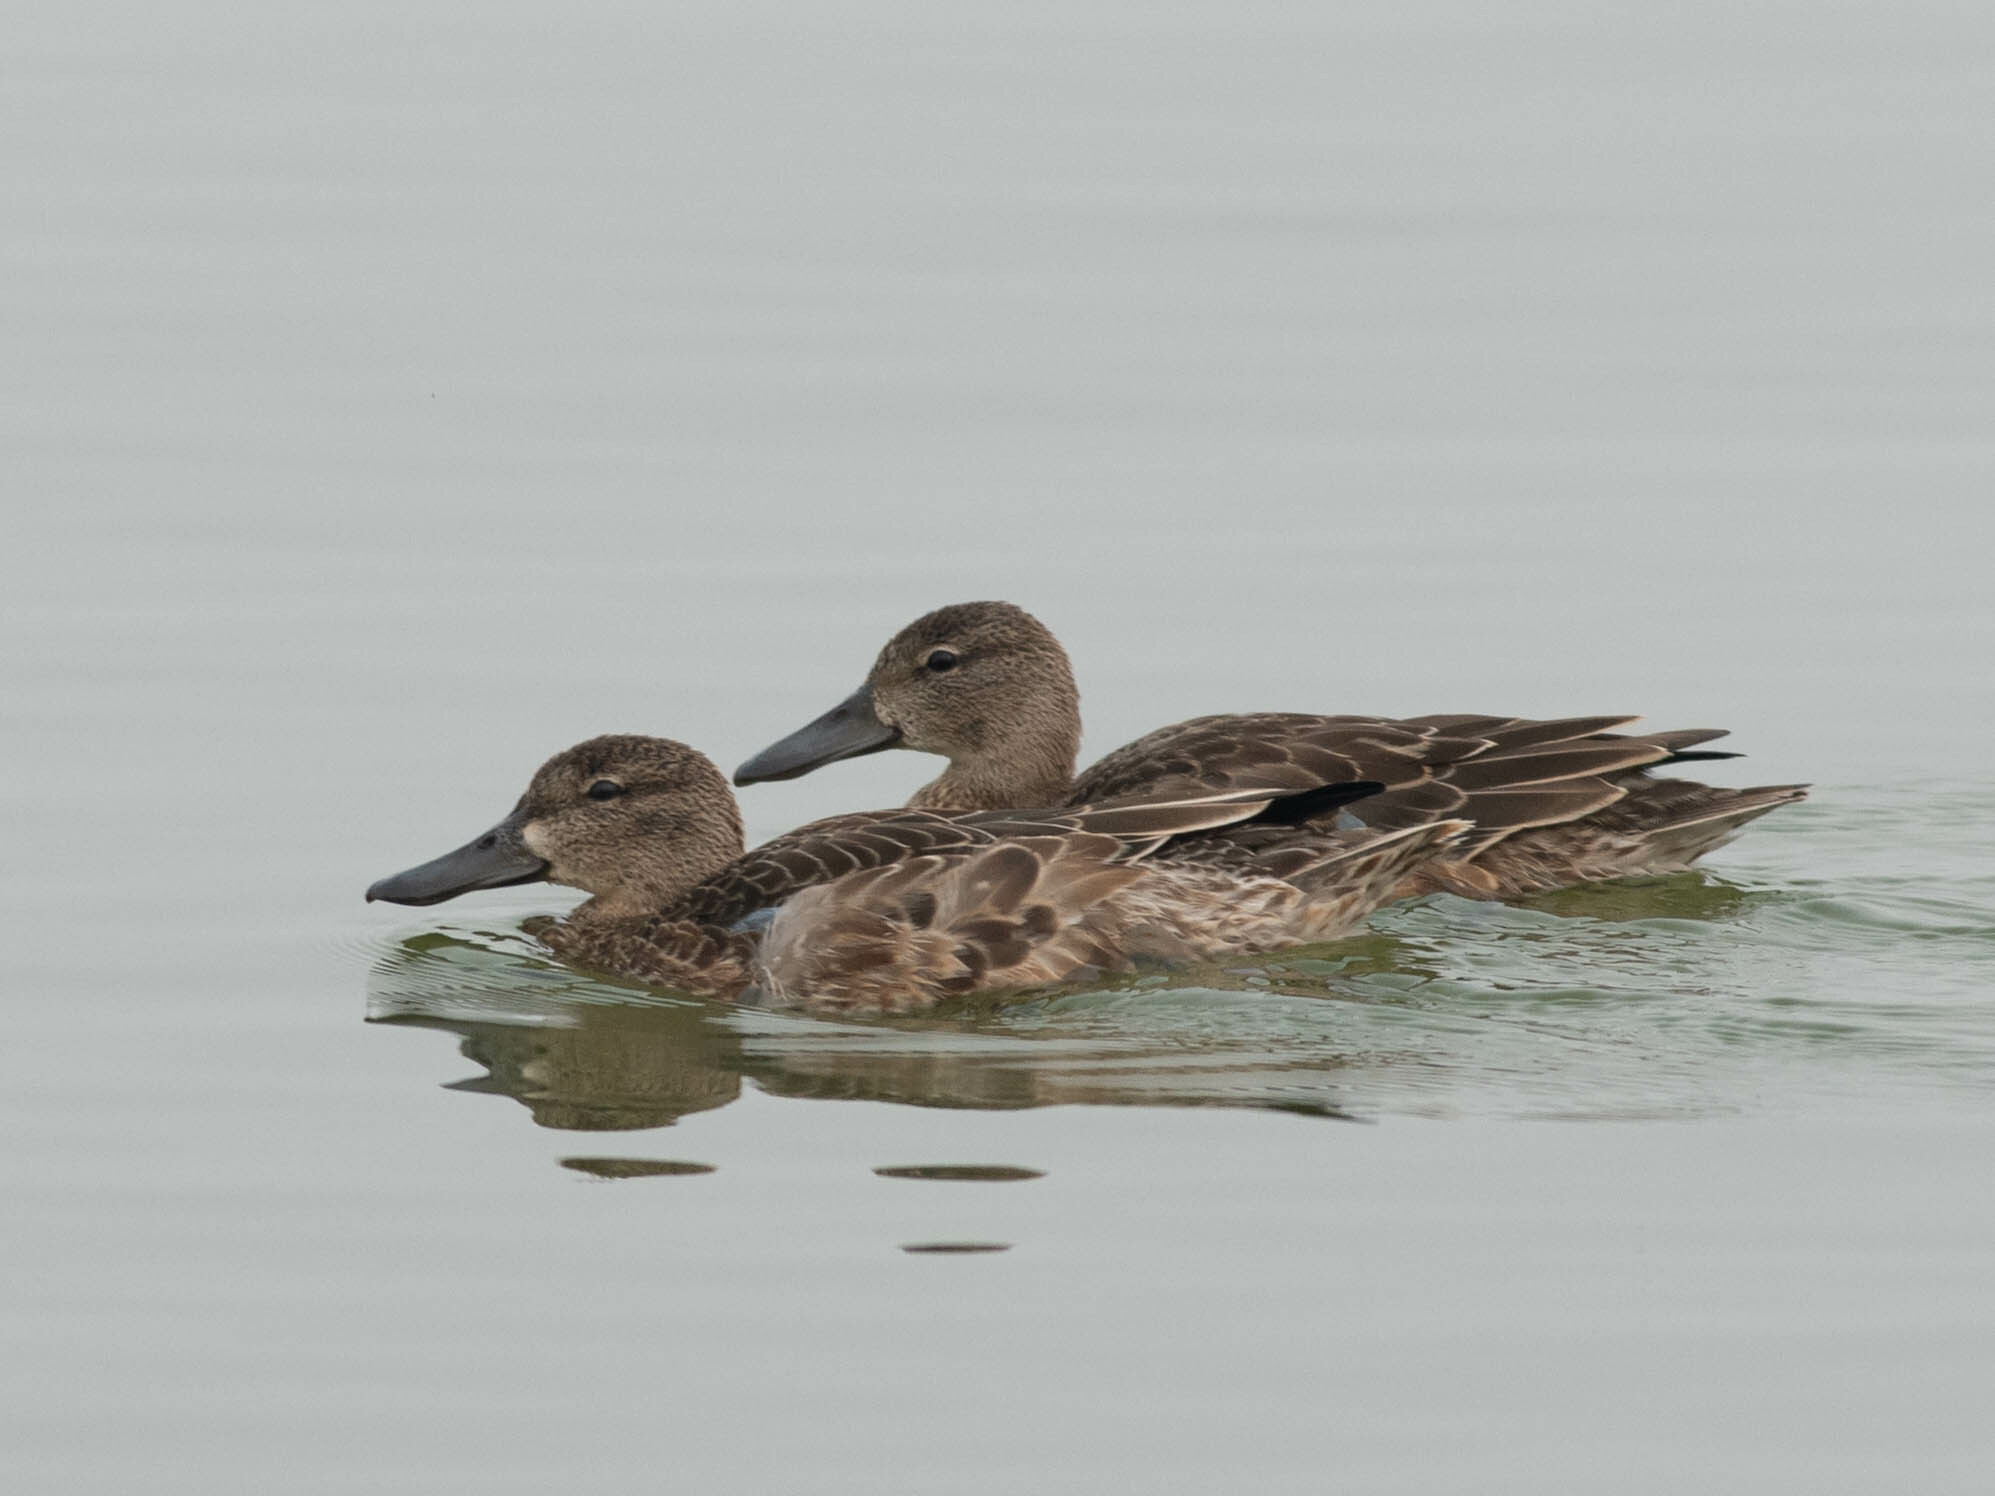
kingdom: Animalia
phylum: Chordata
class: Aves
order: Anseriformes
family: Anatidae
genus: Spatula
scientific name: Spatula discors
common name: Blue-winged teal
